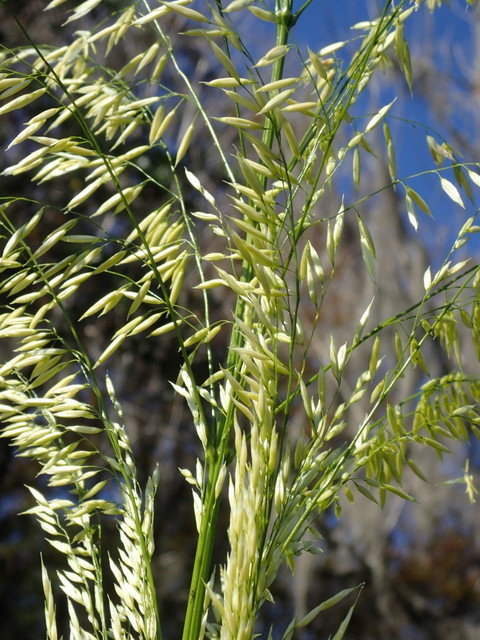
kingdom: Plantae
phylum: Tracheophyta
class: Liliopsida
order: Poales
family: Poaceae
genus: Zizania
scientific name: Zizania aquatica
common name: Annual wildrice
